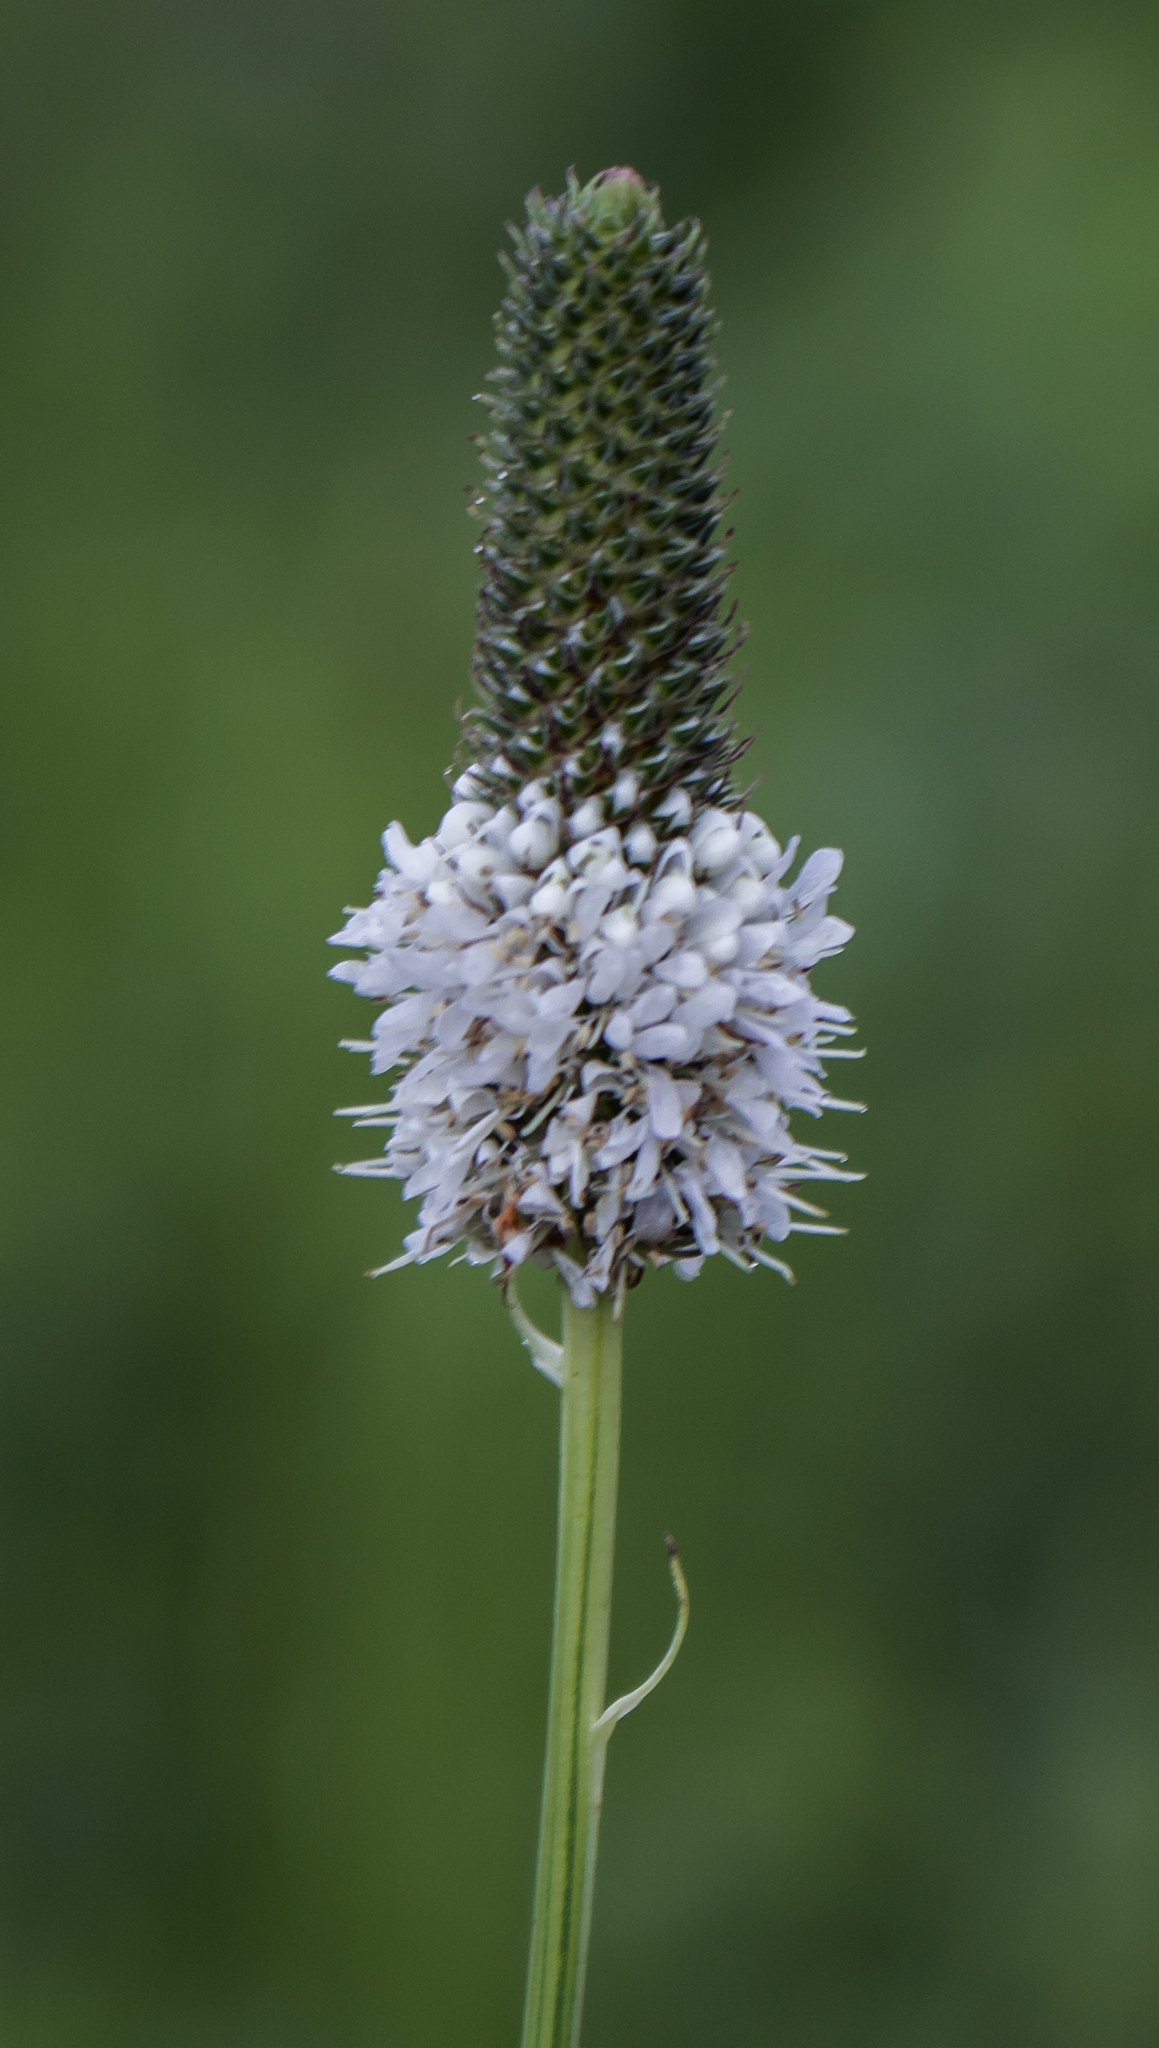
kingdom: Plantae
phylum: Tracheophyta
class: Magnoliopsida
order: Fabales
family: Fabaceae
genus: Dalea
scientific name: Dalea candida
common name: White prairie-clover
